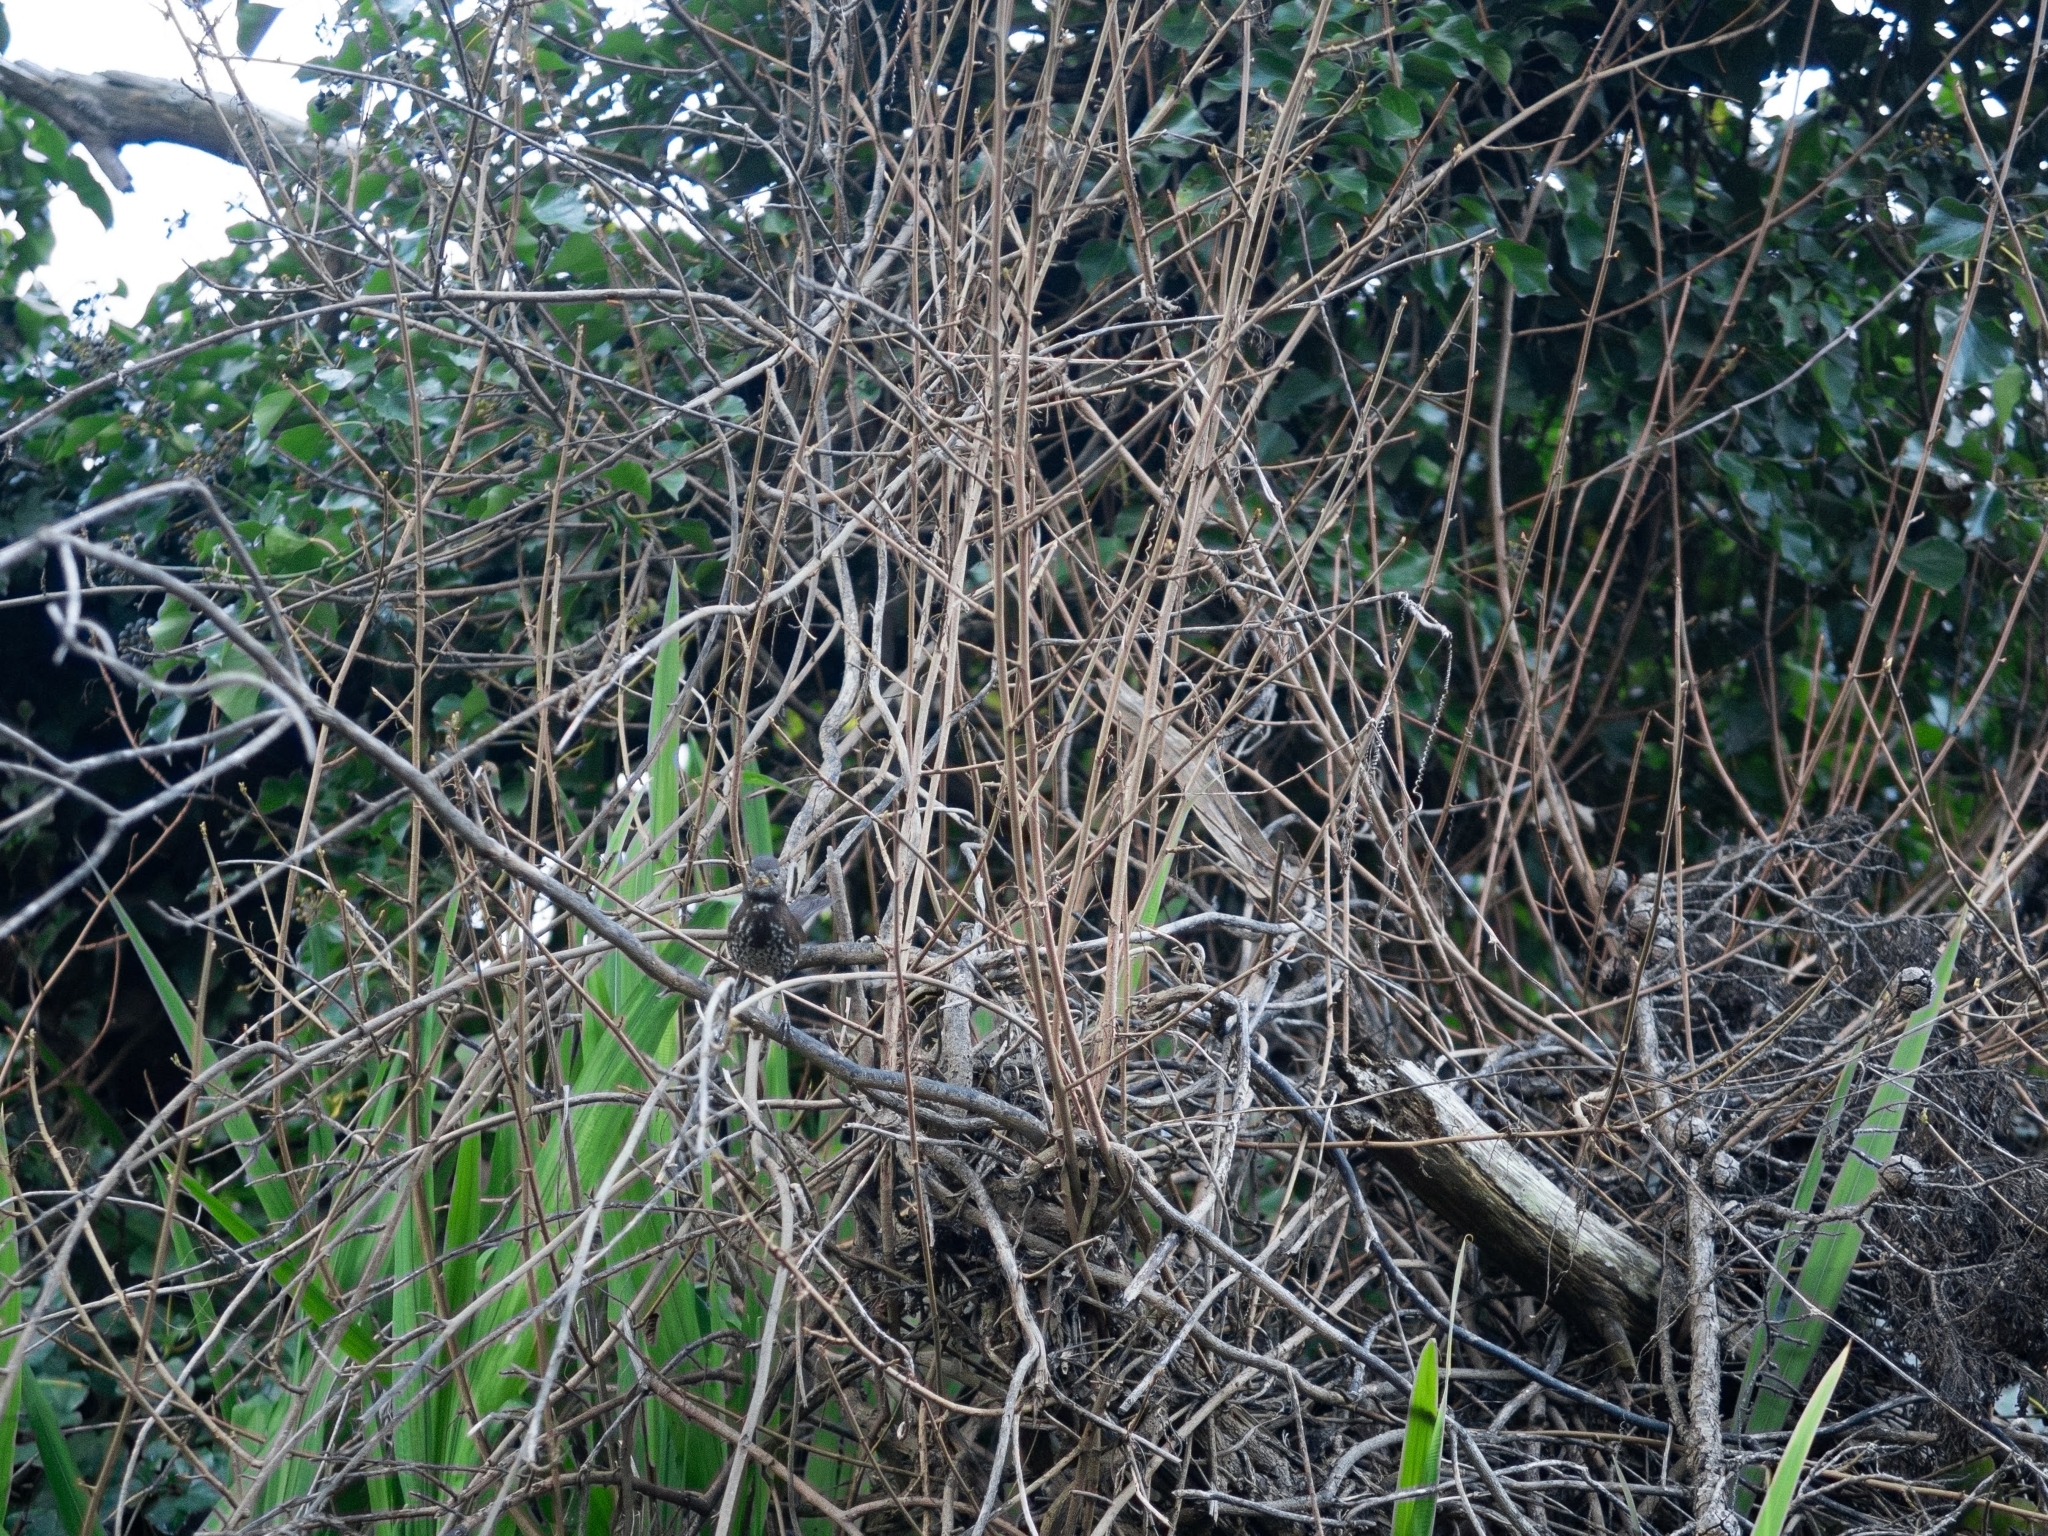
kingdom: Animalia
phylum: Chordata
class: Aves
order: Passeriformes
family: Passerellidae
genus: Passerella
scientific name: Passerella iliaca
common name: Fox sparrow
